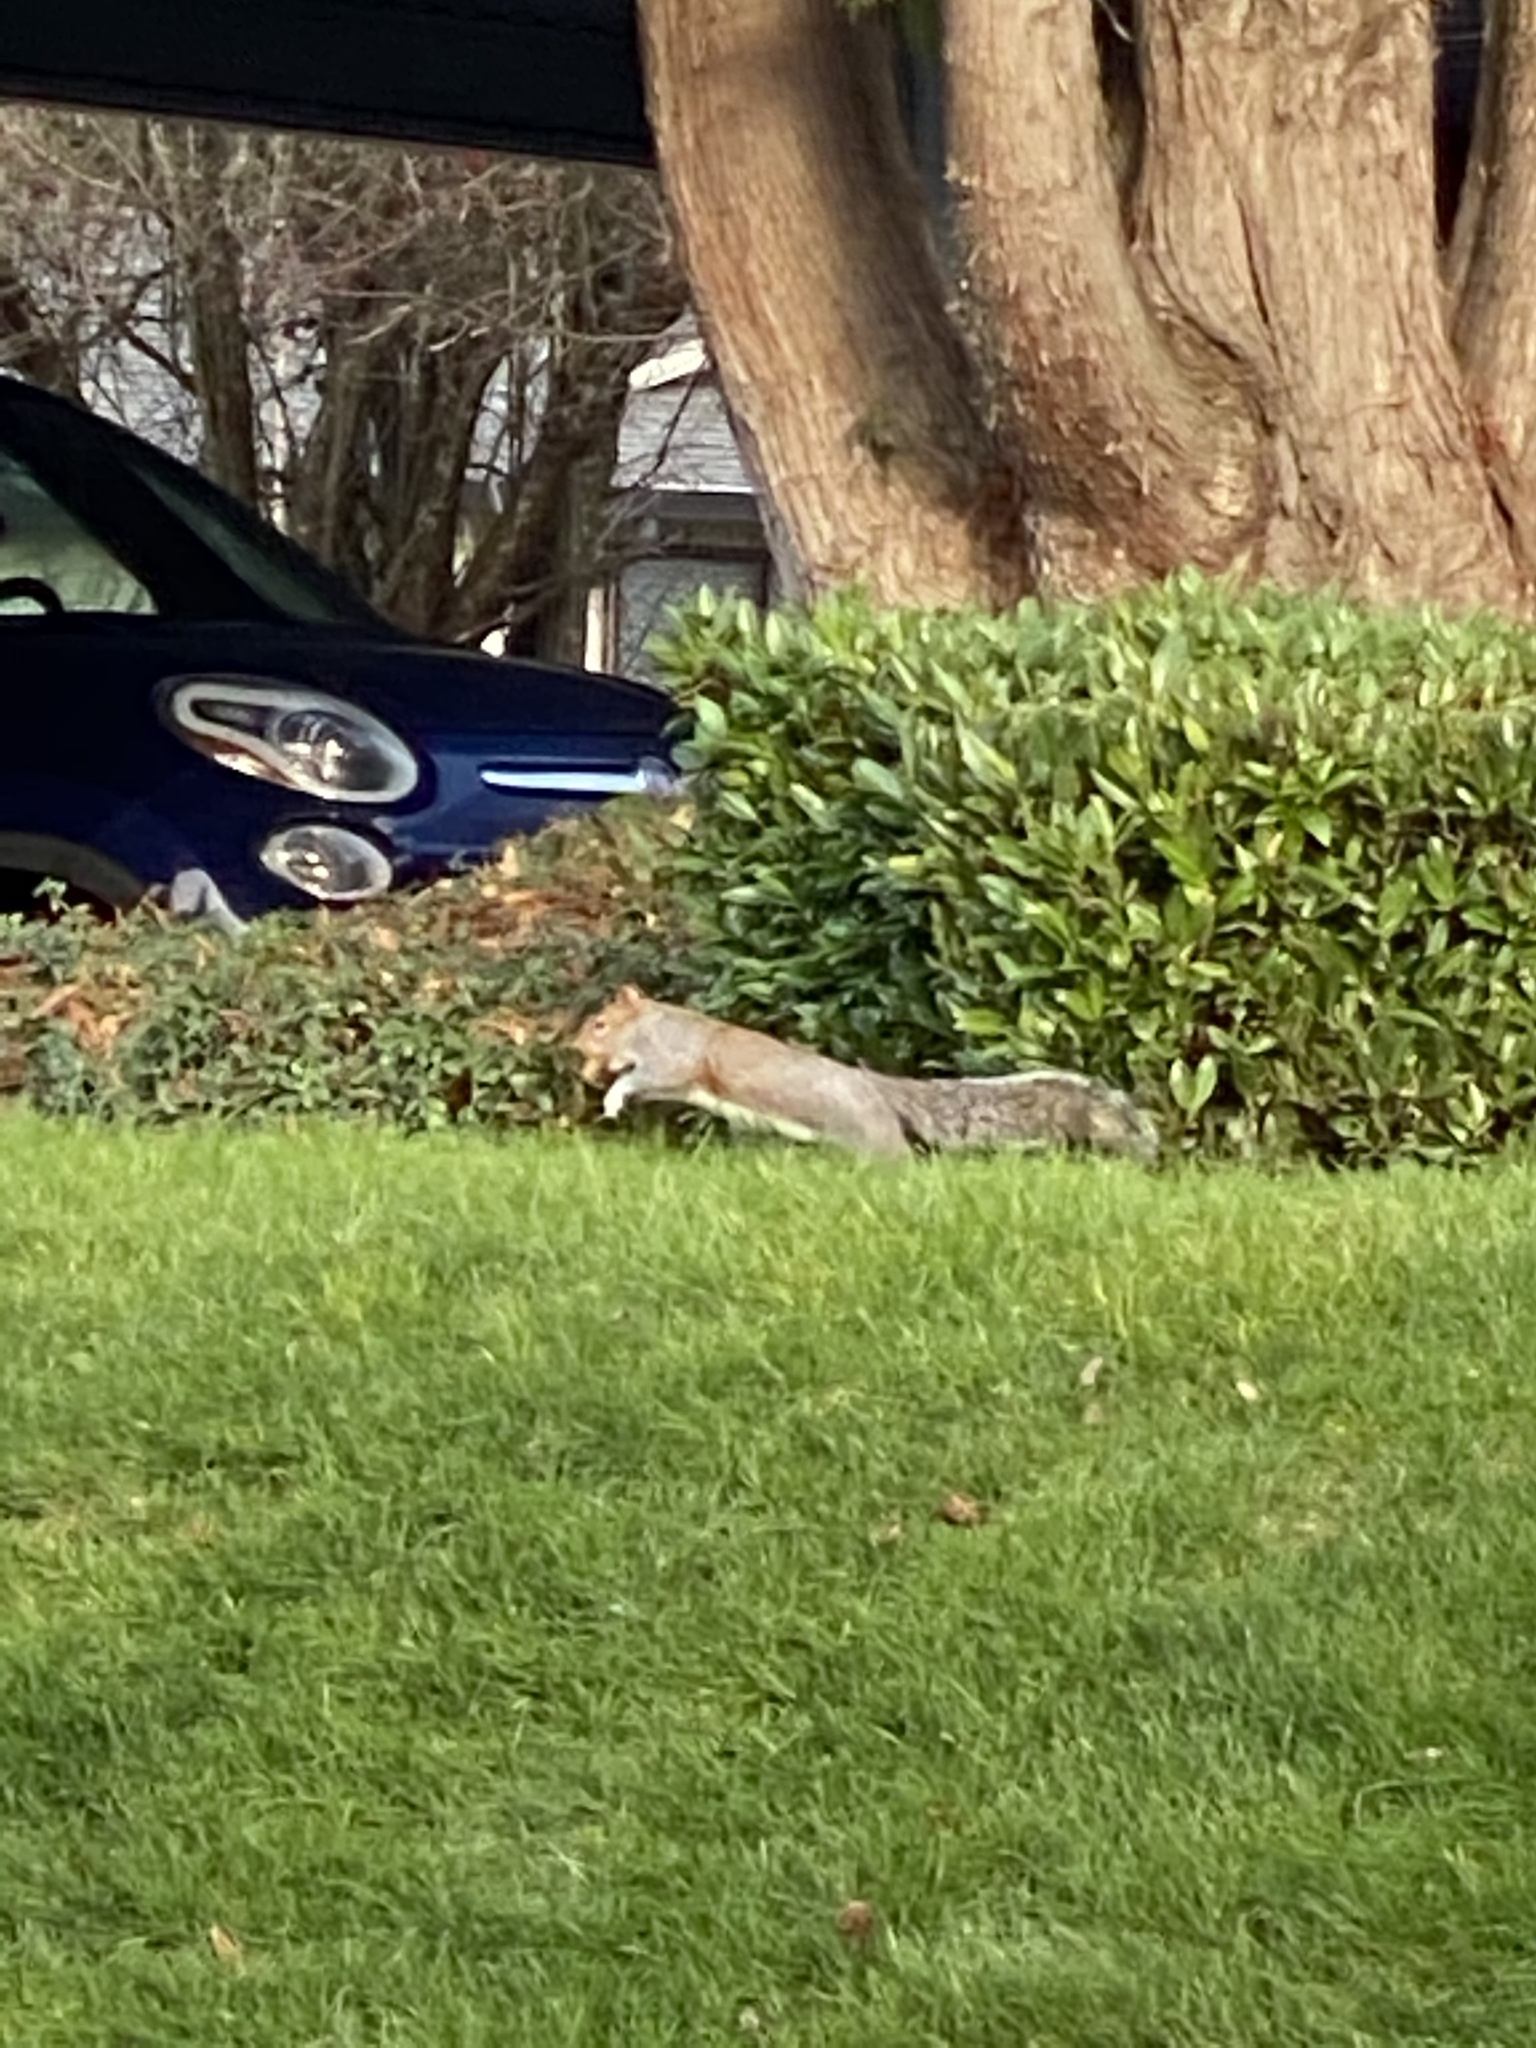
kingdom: Animalia
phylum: Chordata
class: Mammalia
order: Rodentia
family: Sciuridae
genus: Sciurus
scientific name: Sciurus carolinensis
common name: Eastern gray squirrel
